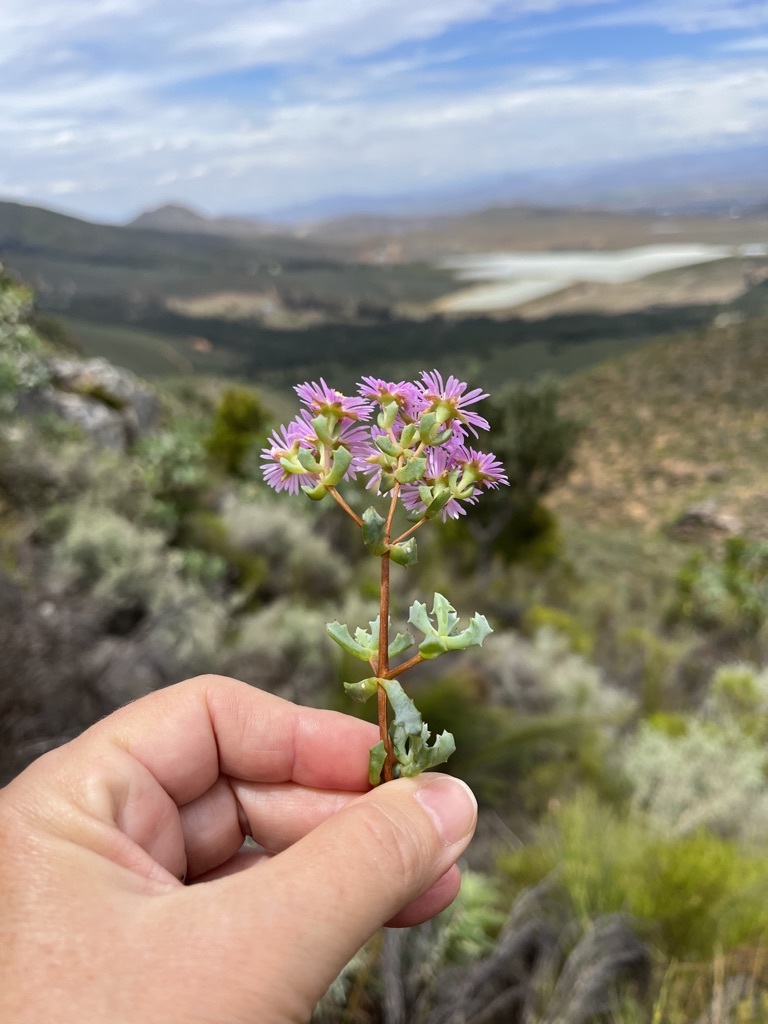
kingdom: Plantae
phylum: Tracheophyta
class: Magnoliopsida
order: Caryophyllales
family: Aizoaceae
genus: Oscularia
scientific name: Oscularia deltoides
